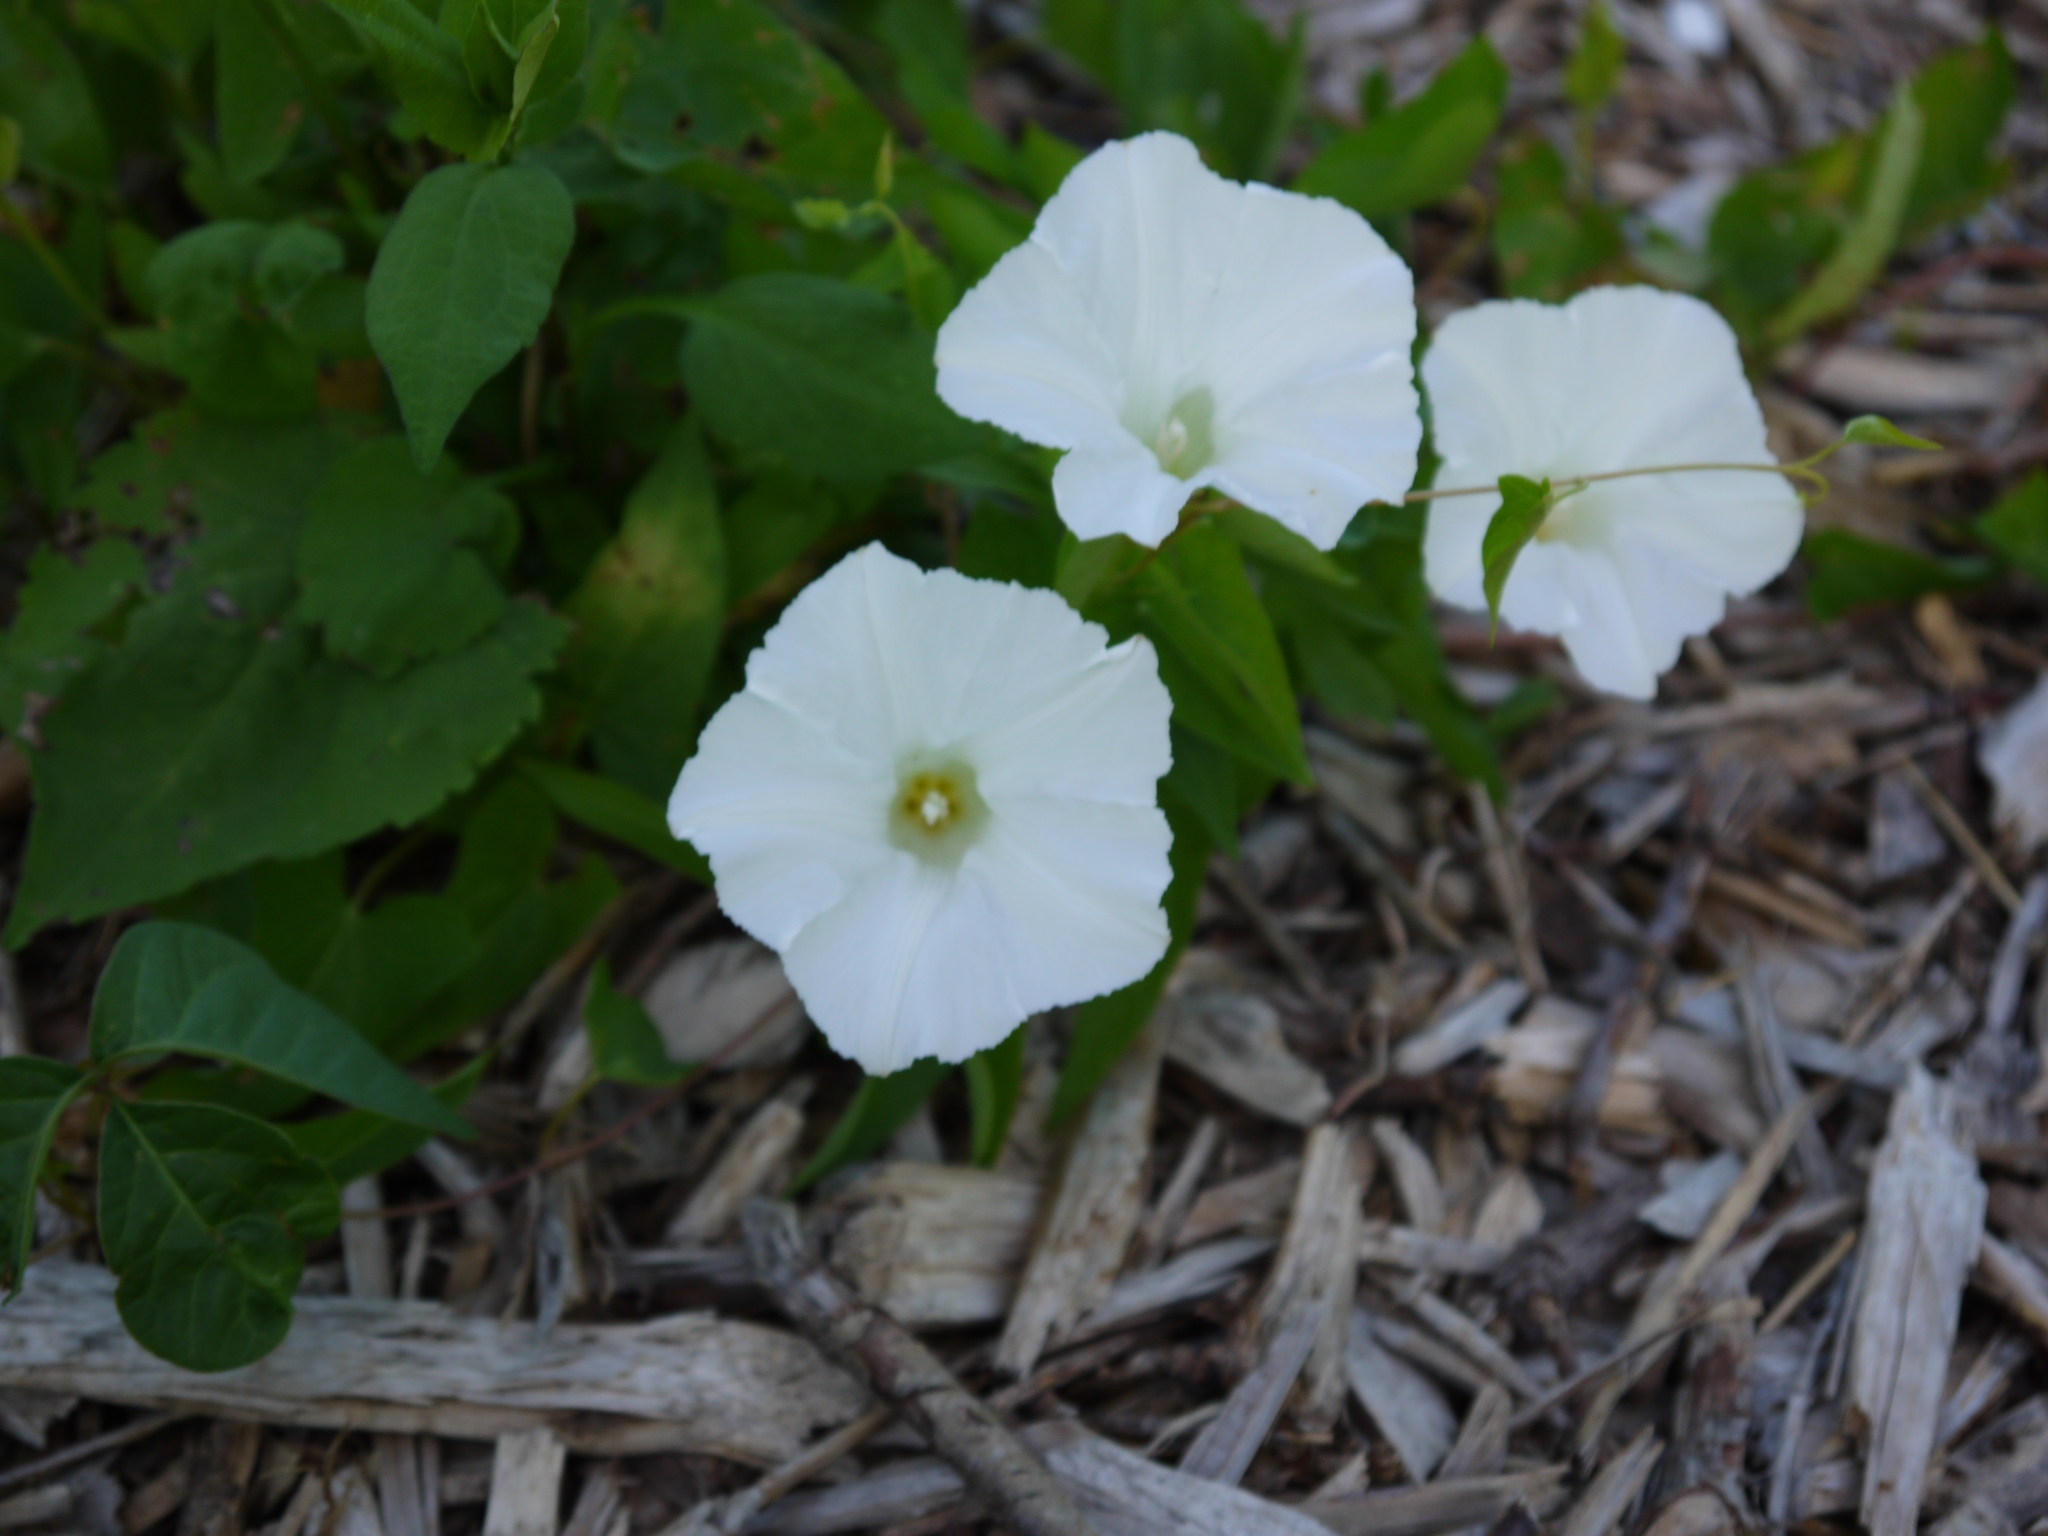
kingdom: Plantae
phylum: Tracheophyta
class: Magnoliopsida
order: Solanales
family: Convolvulaceae
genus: Calystegia
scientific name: Calystegia sepium
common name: Hedge bindweed
